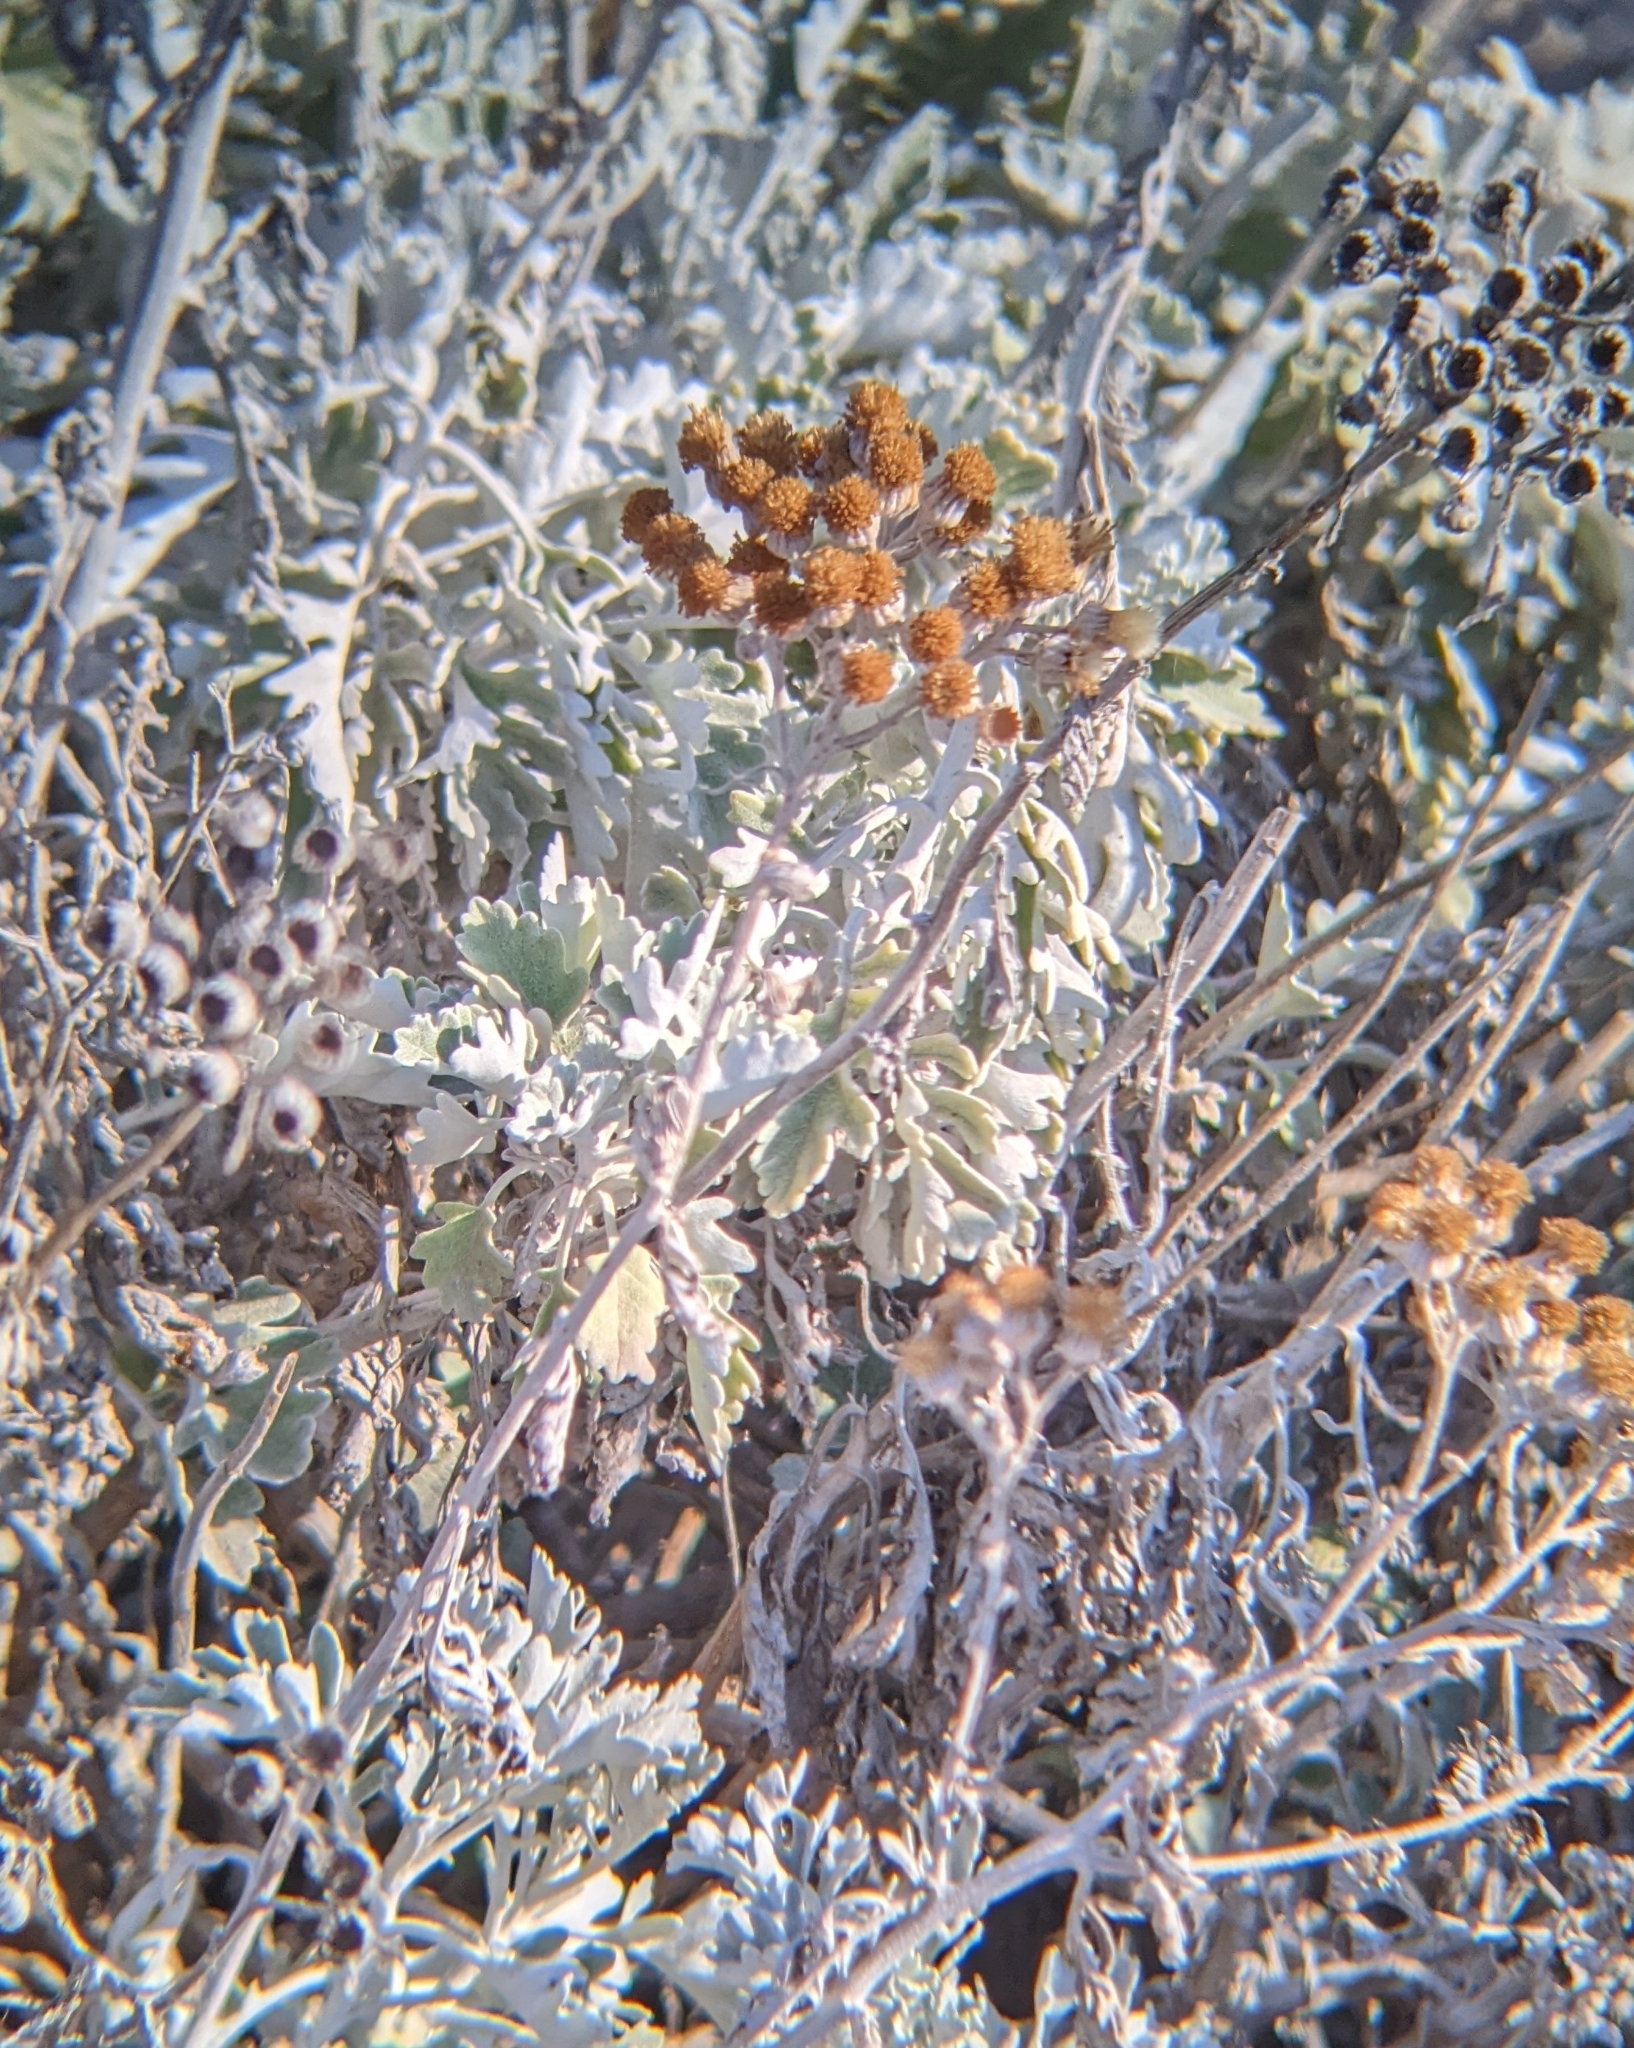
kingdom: Plantae
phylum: Tracheophyta
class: Magnoliopsida
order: Asterales
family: Asteraceae
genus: Jacobaea
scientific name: Jacobaea maritima
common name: Silver ragwort
